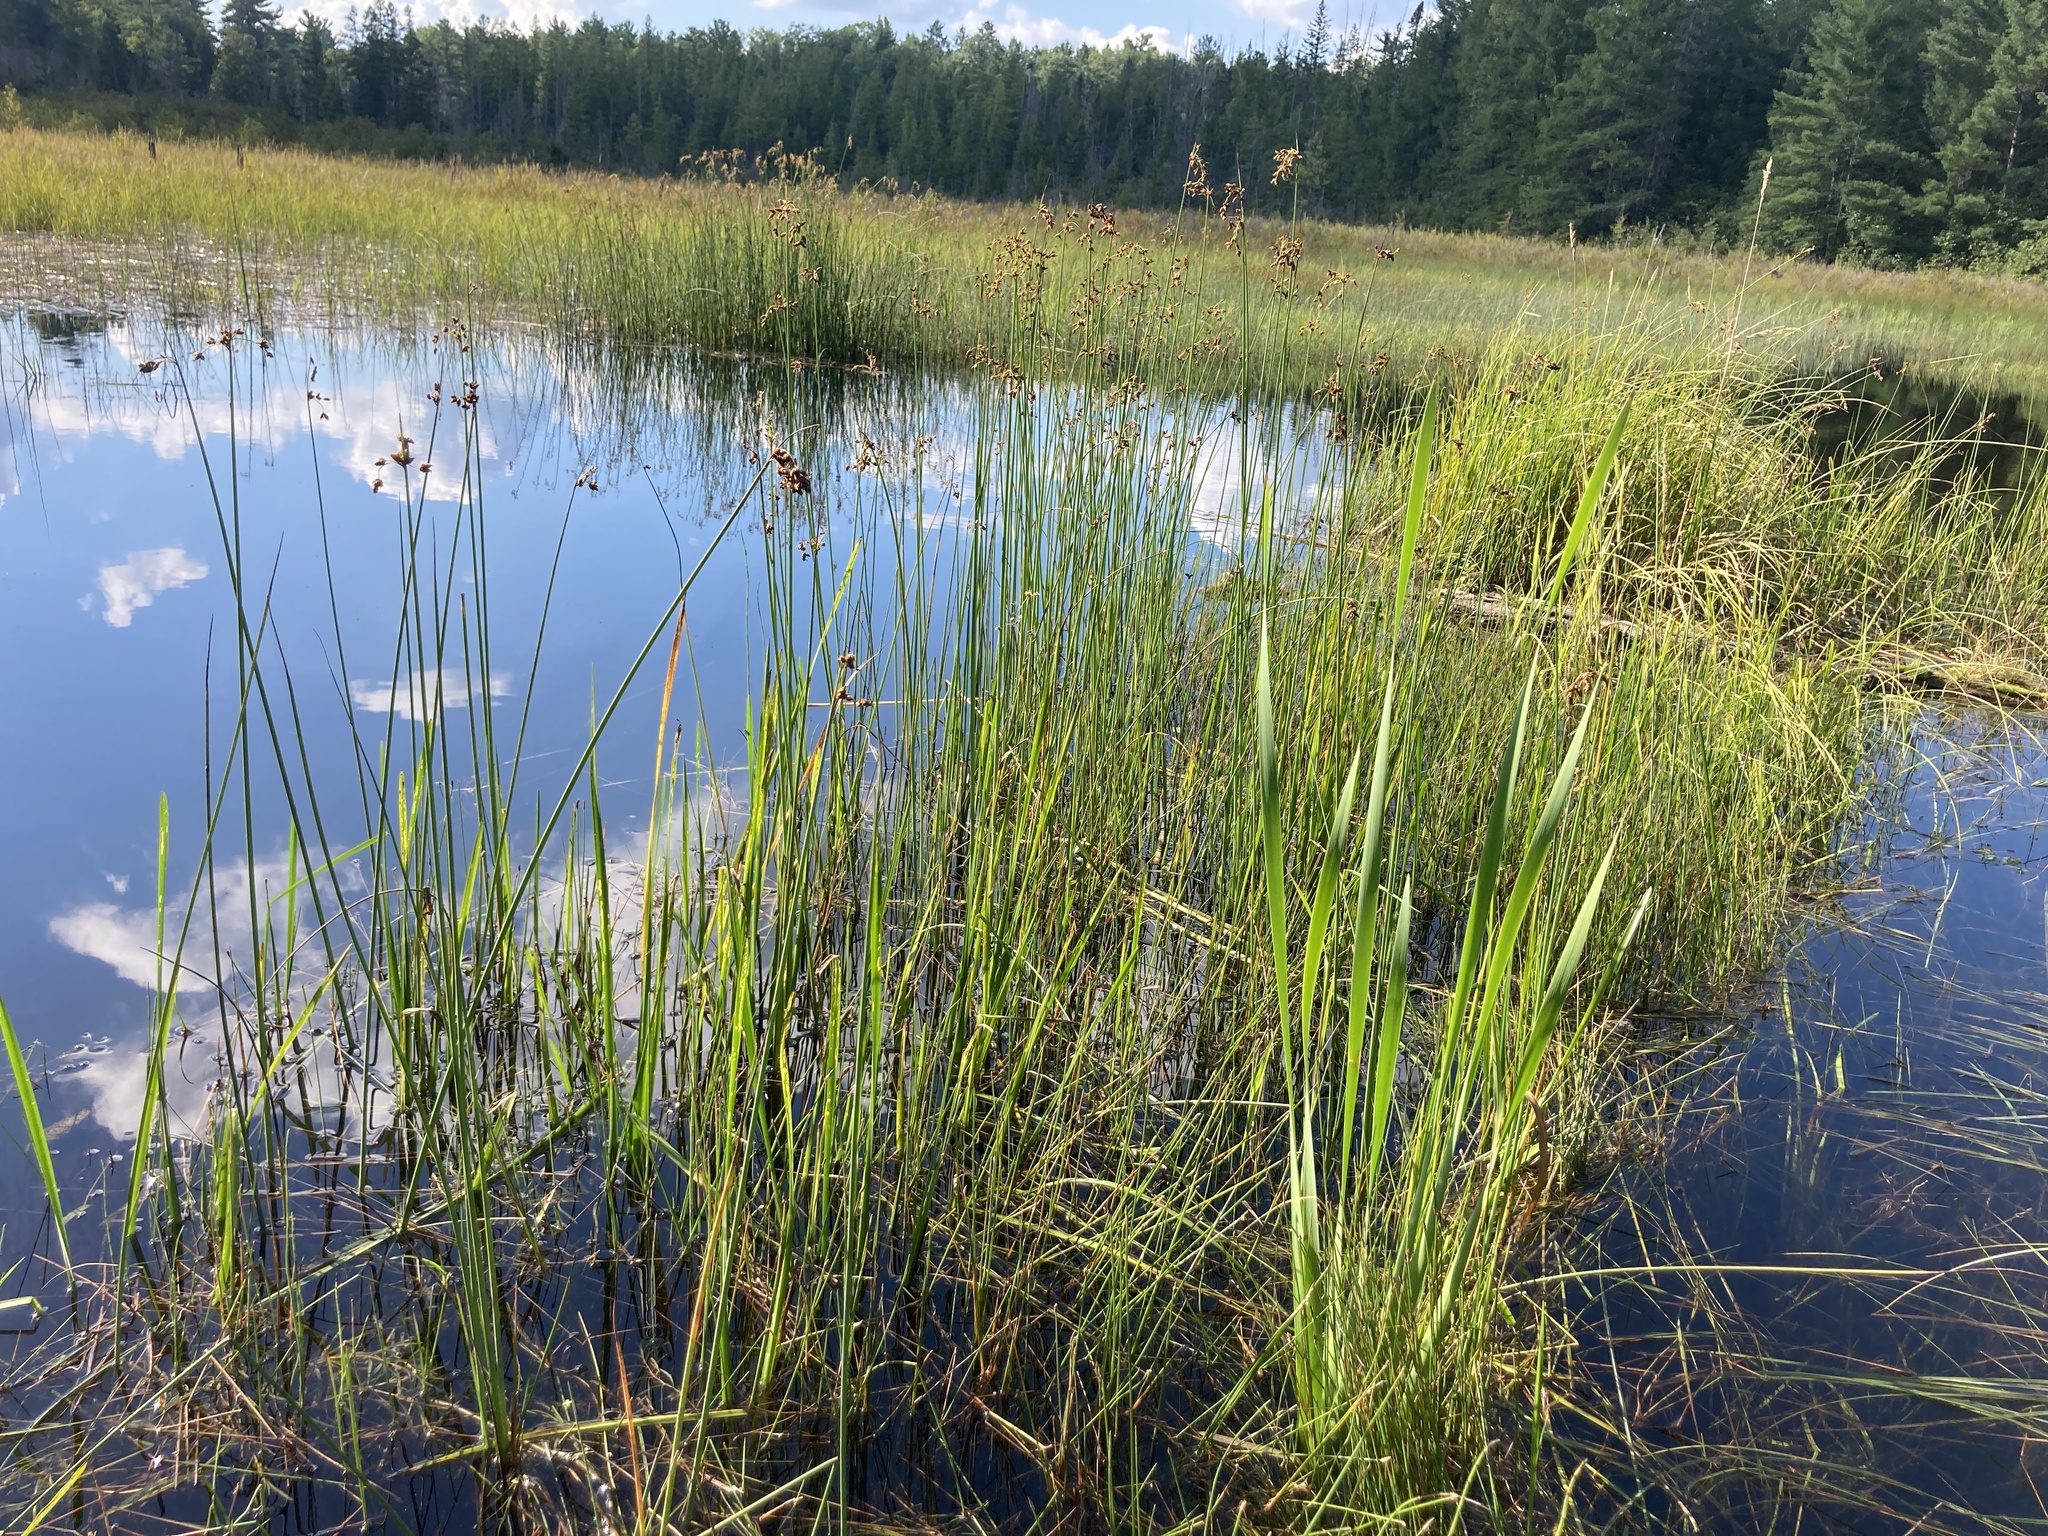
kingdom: Plantae
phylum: Tracheophyta
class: Liliopsida
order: Poales
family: Cyperaceae
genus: Schoenoplectus
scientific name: Schoenoplectus tabernaemontani
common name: Grey club-rush
